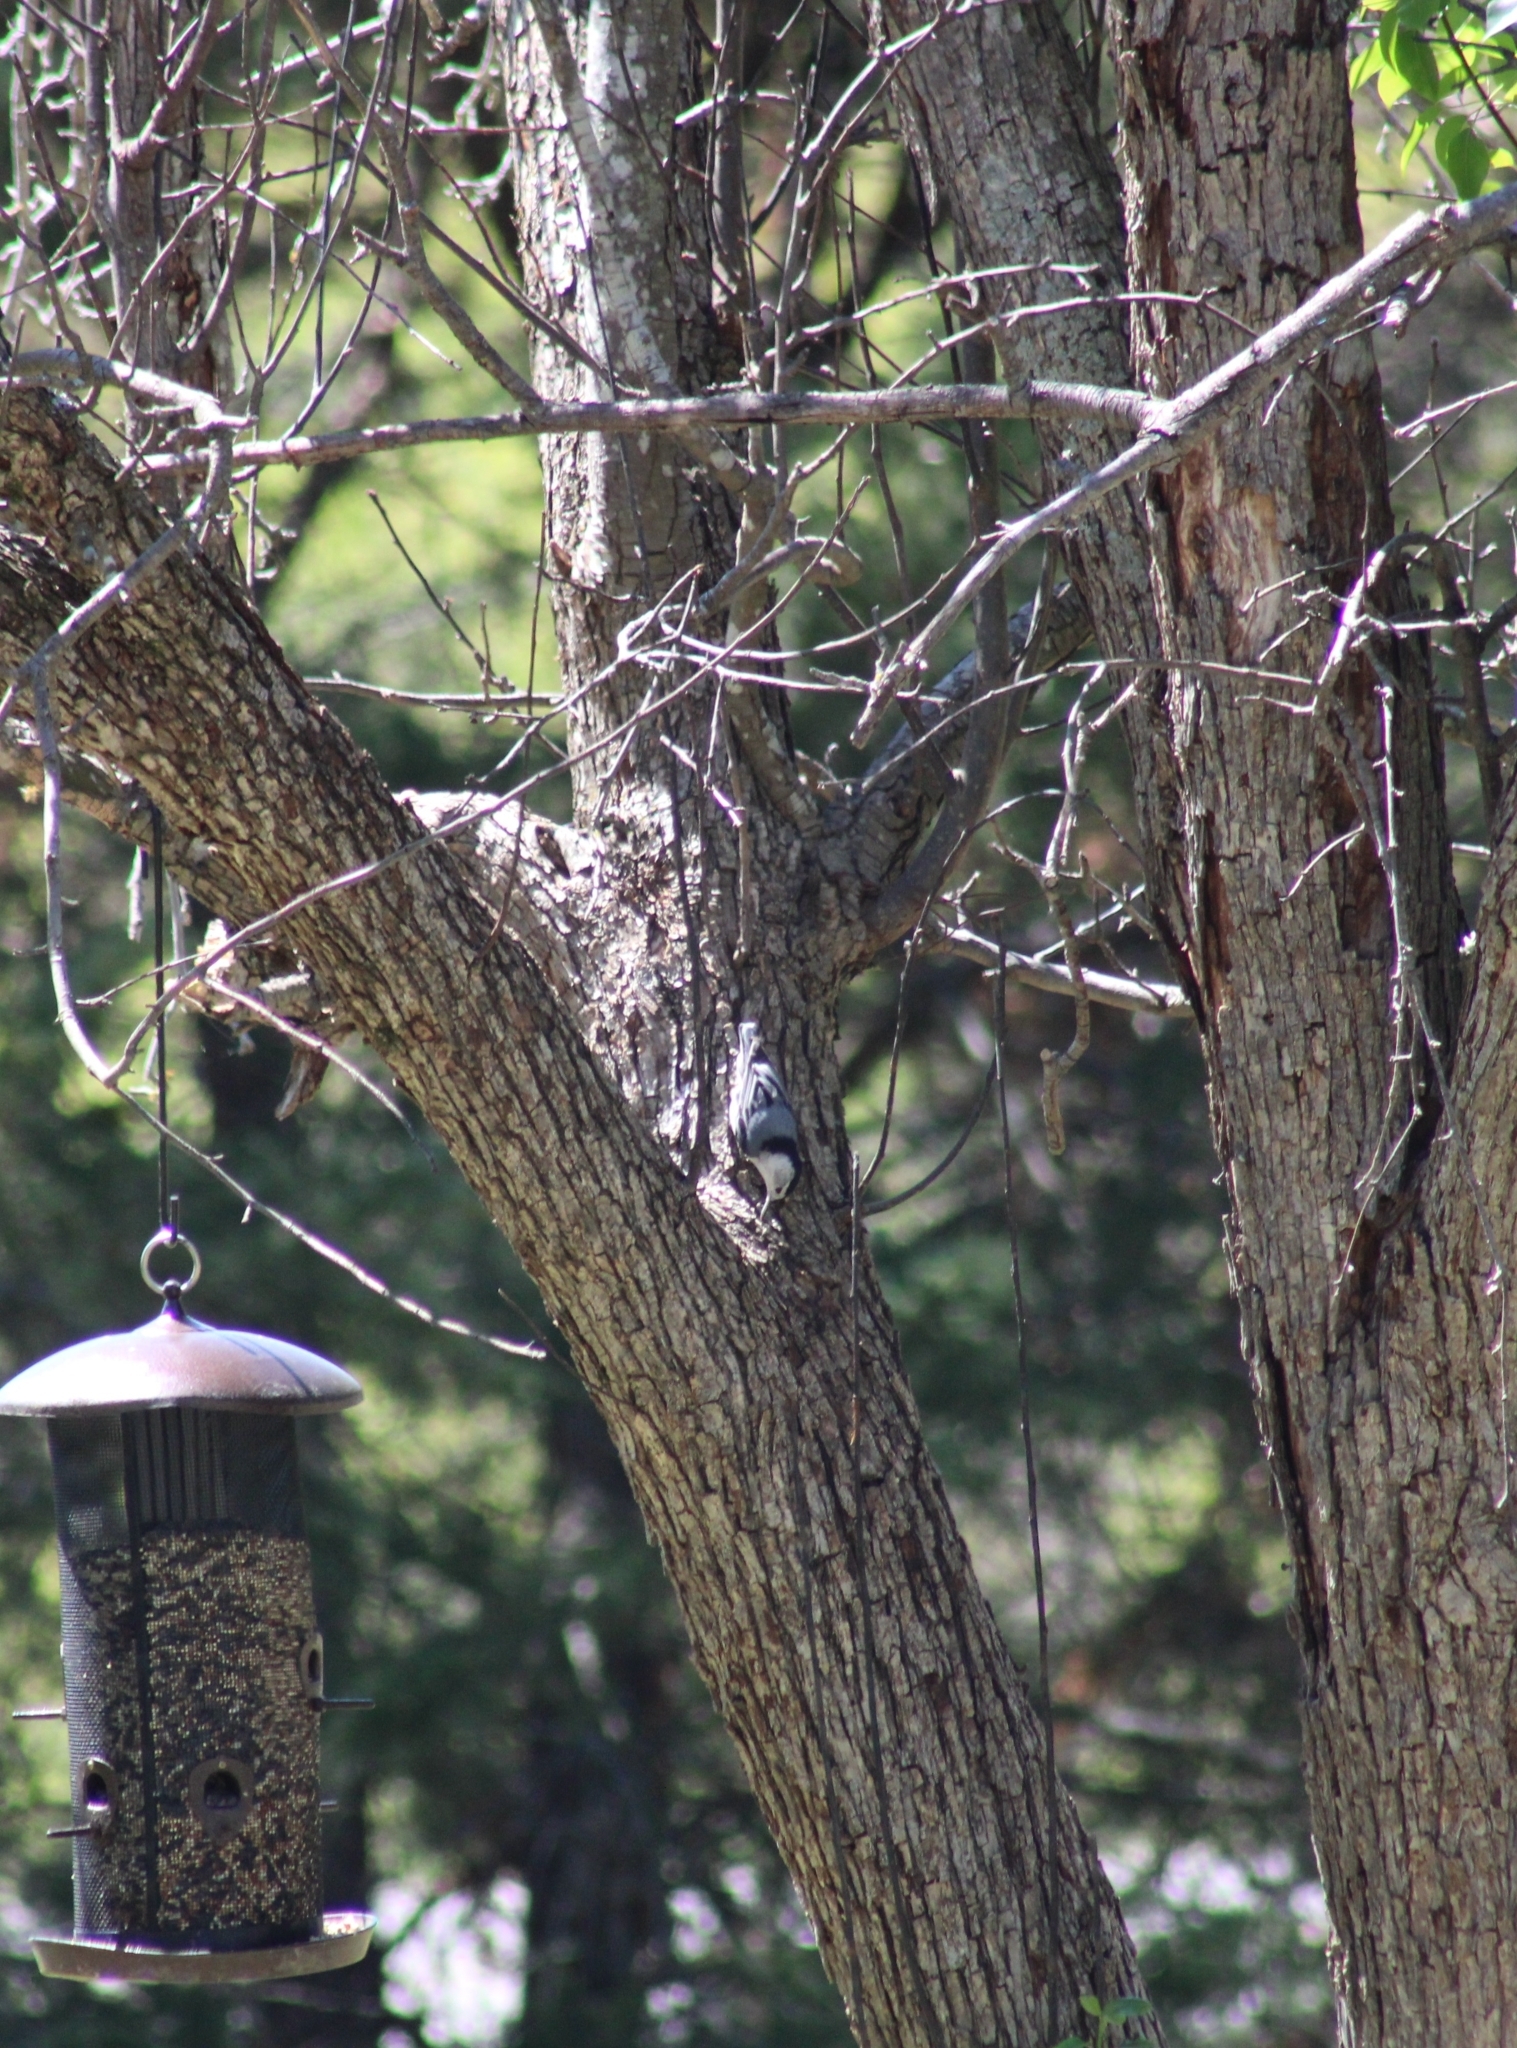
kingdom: Animalia
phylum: Chordata
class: Aves
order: Passeriformes
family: Sittidae
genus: Sitta
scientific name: Sitta carolinensis
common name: White-breasted nuthatch
